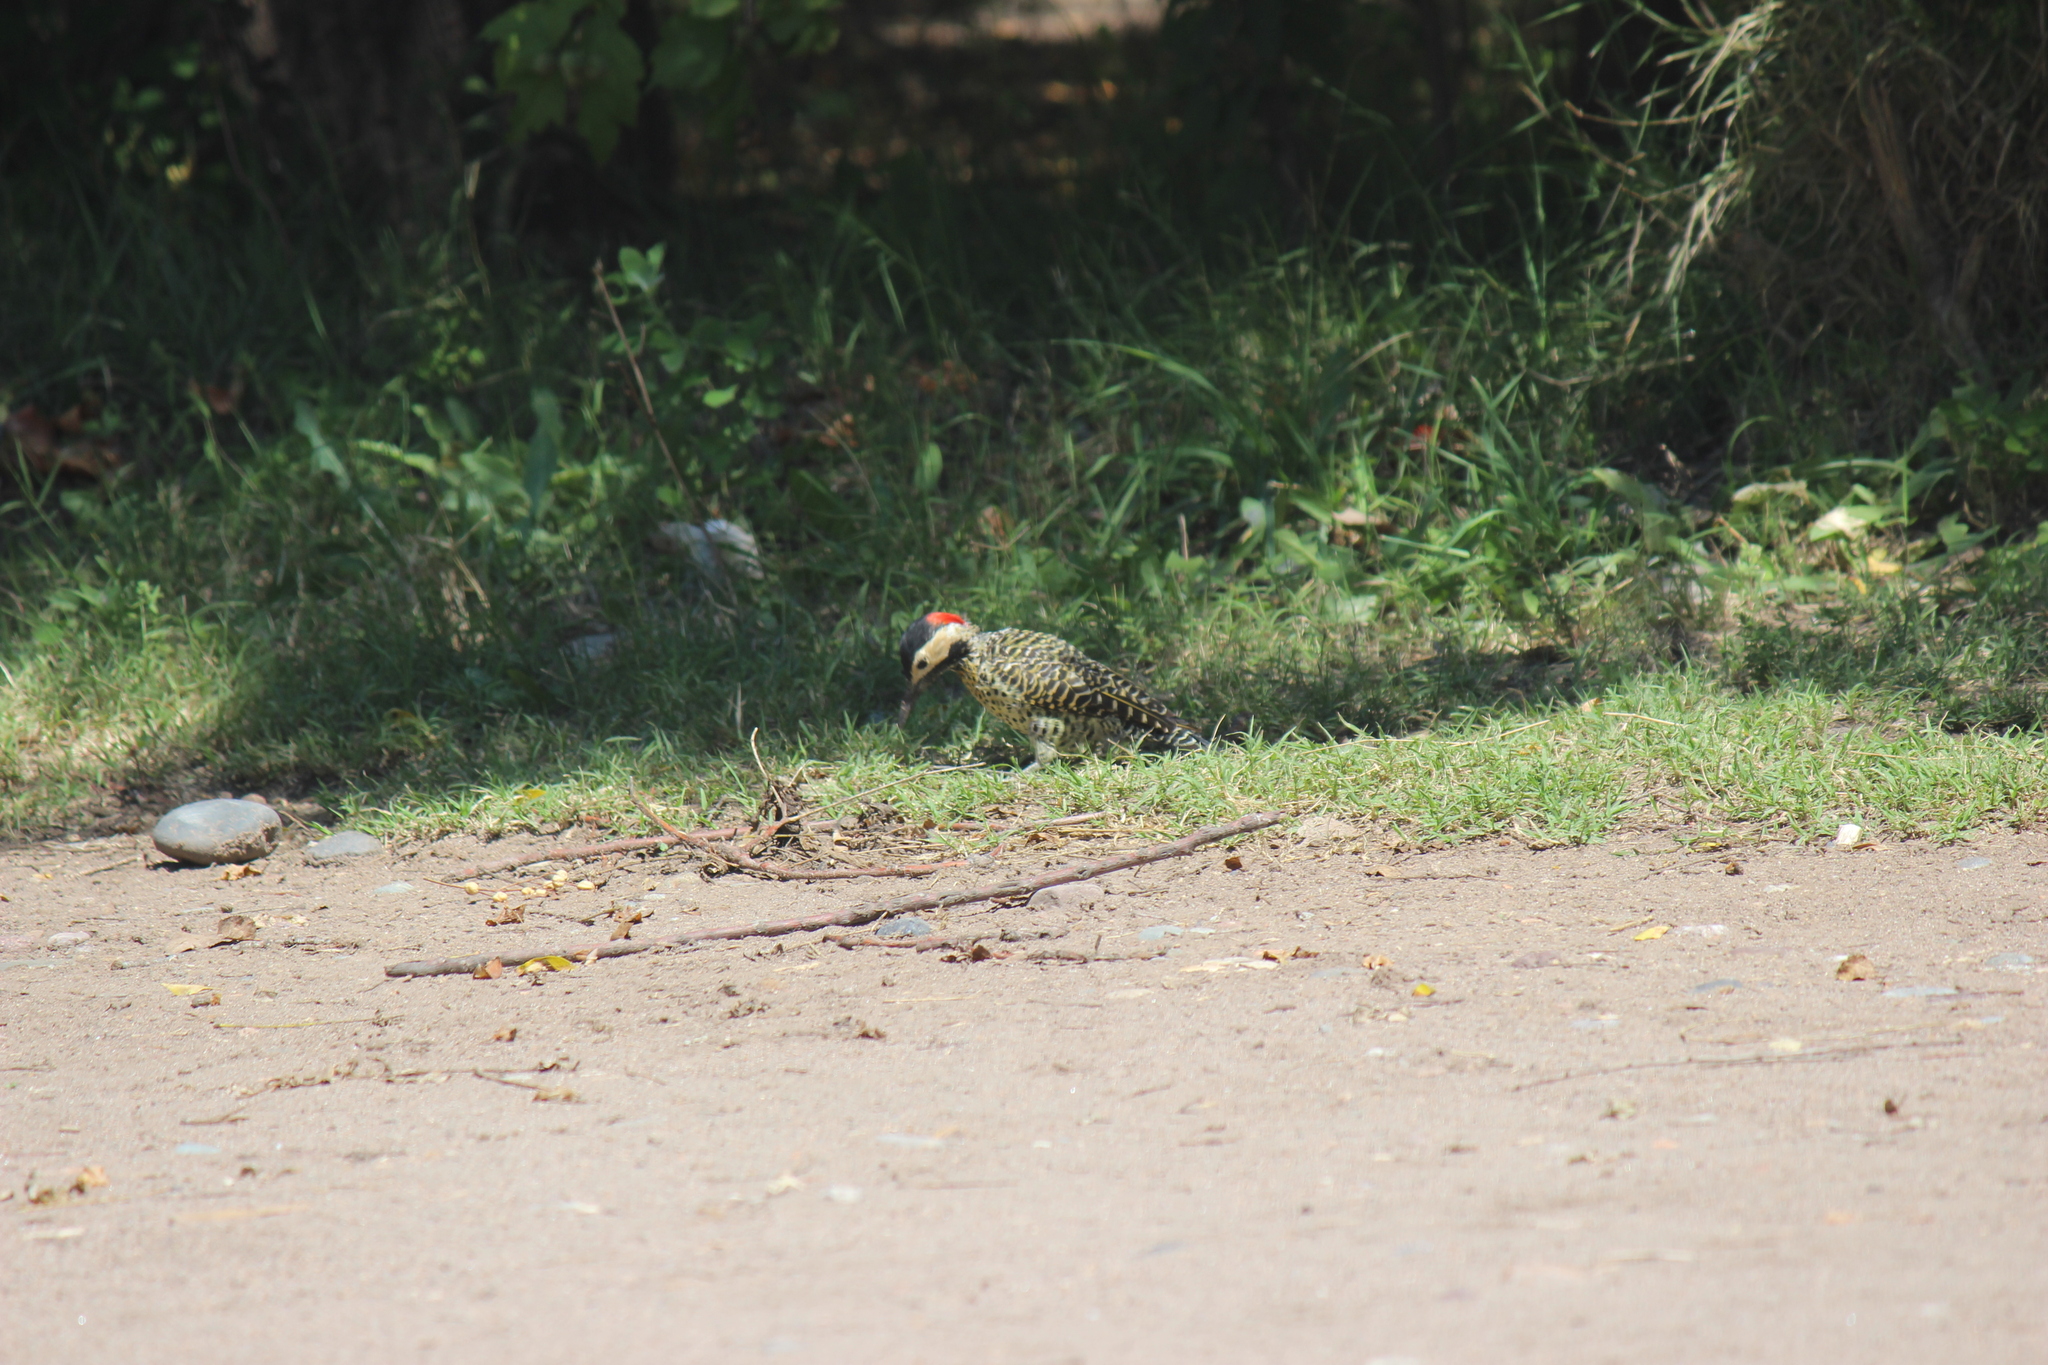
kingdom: Animalia
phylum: Chordata
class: Aves
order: Piciformes
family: Picidae
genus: Colaptes
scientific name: Colaptes melanochloros
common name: Green-barred woodpecker
